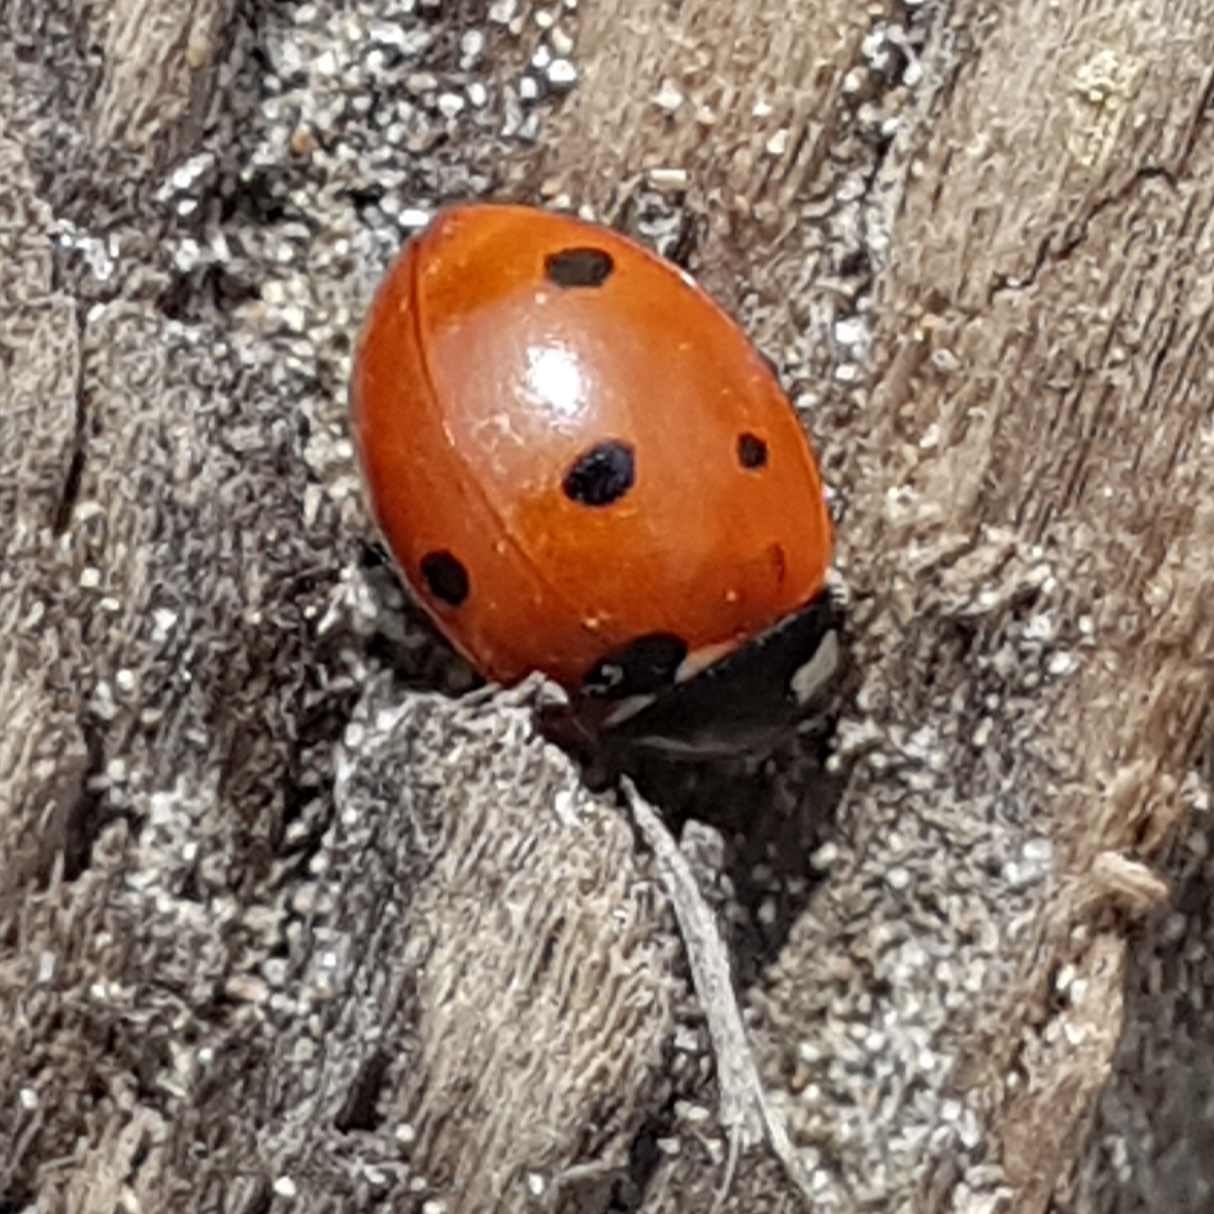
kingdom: Animalia
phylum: Arthropoda
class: Insecta
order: Coleoptera
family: Coccinellidae
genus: Coccinella
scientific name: Coccinella septempunctata
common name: Sevenspotted lady beetle
